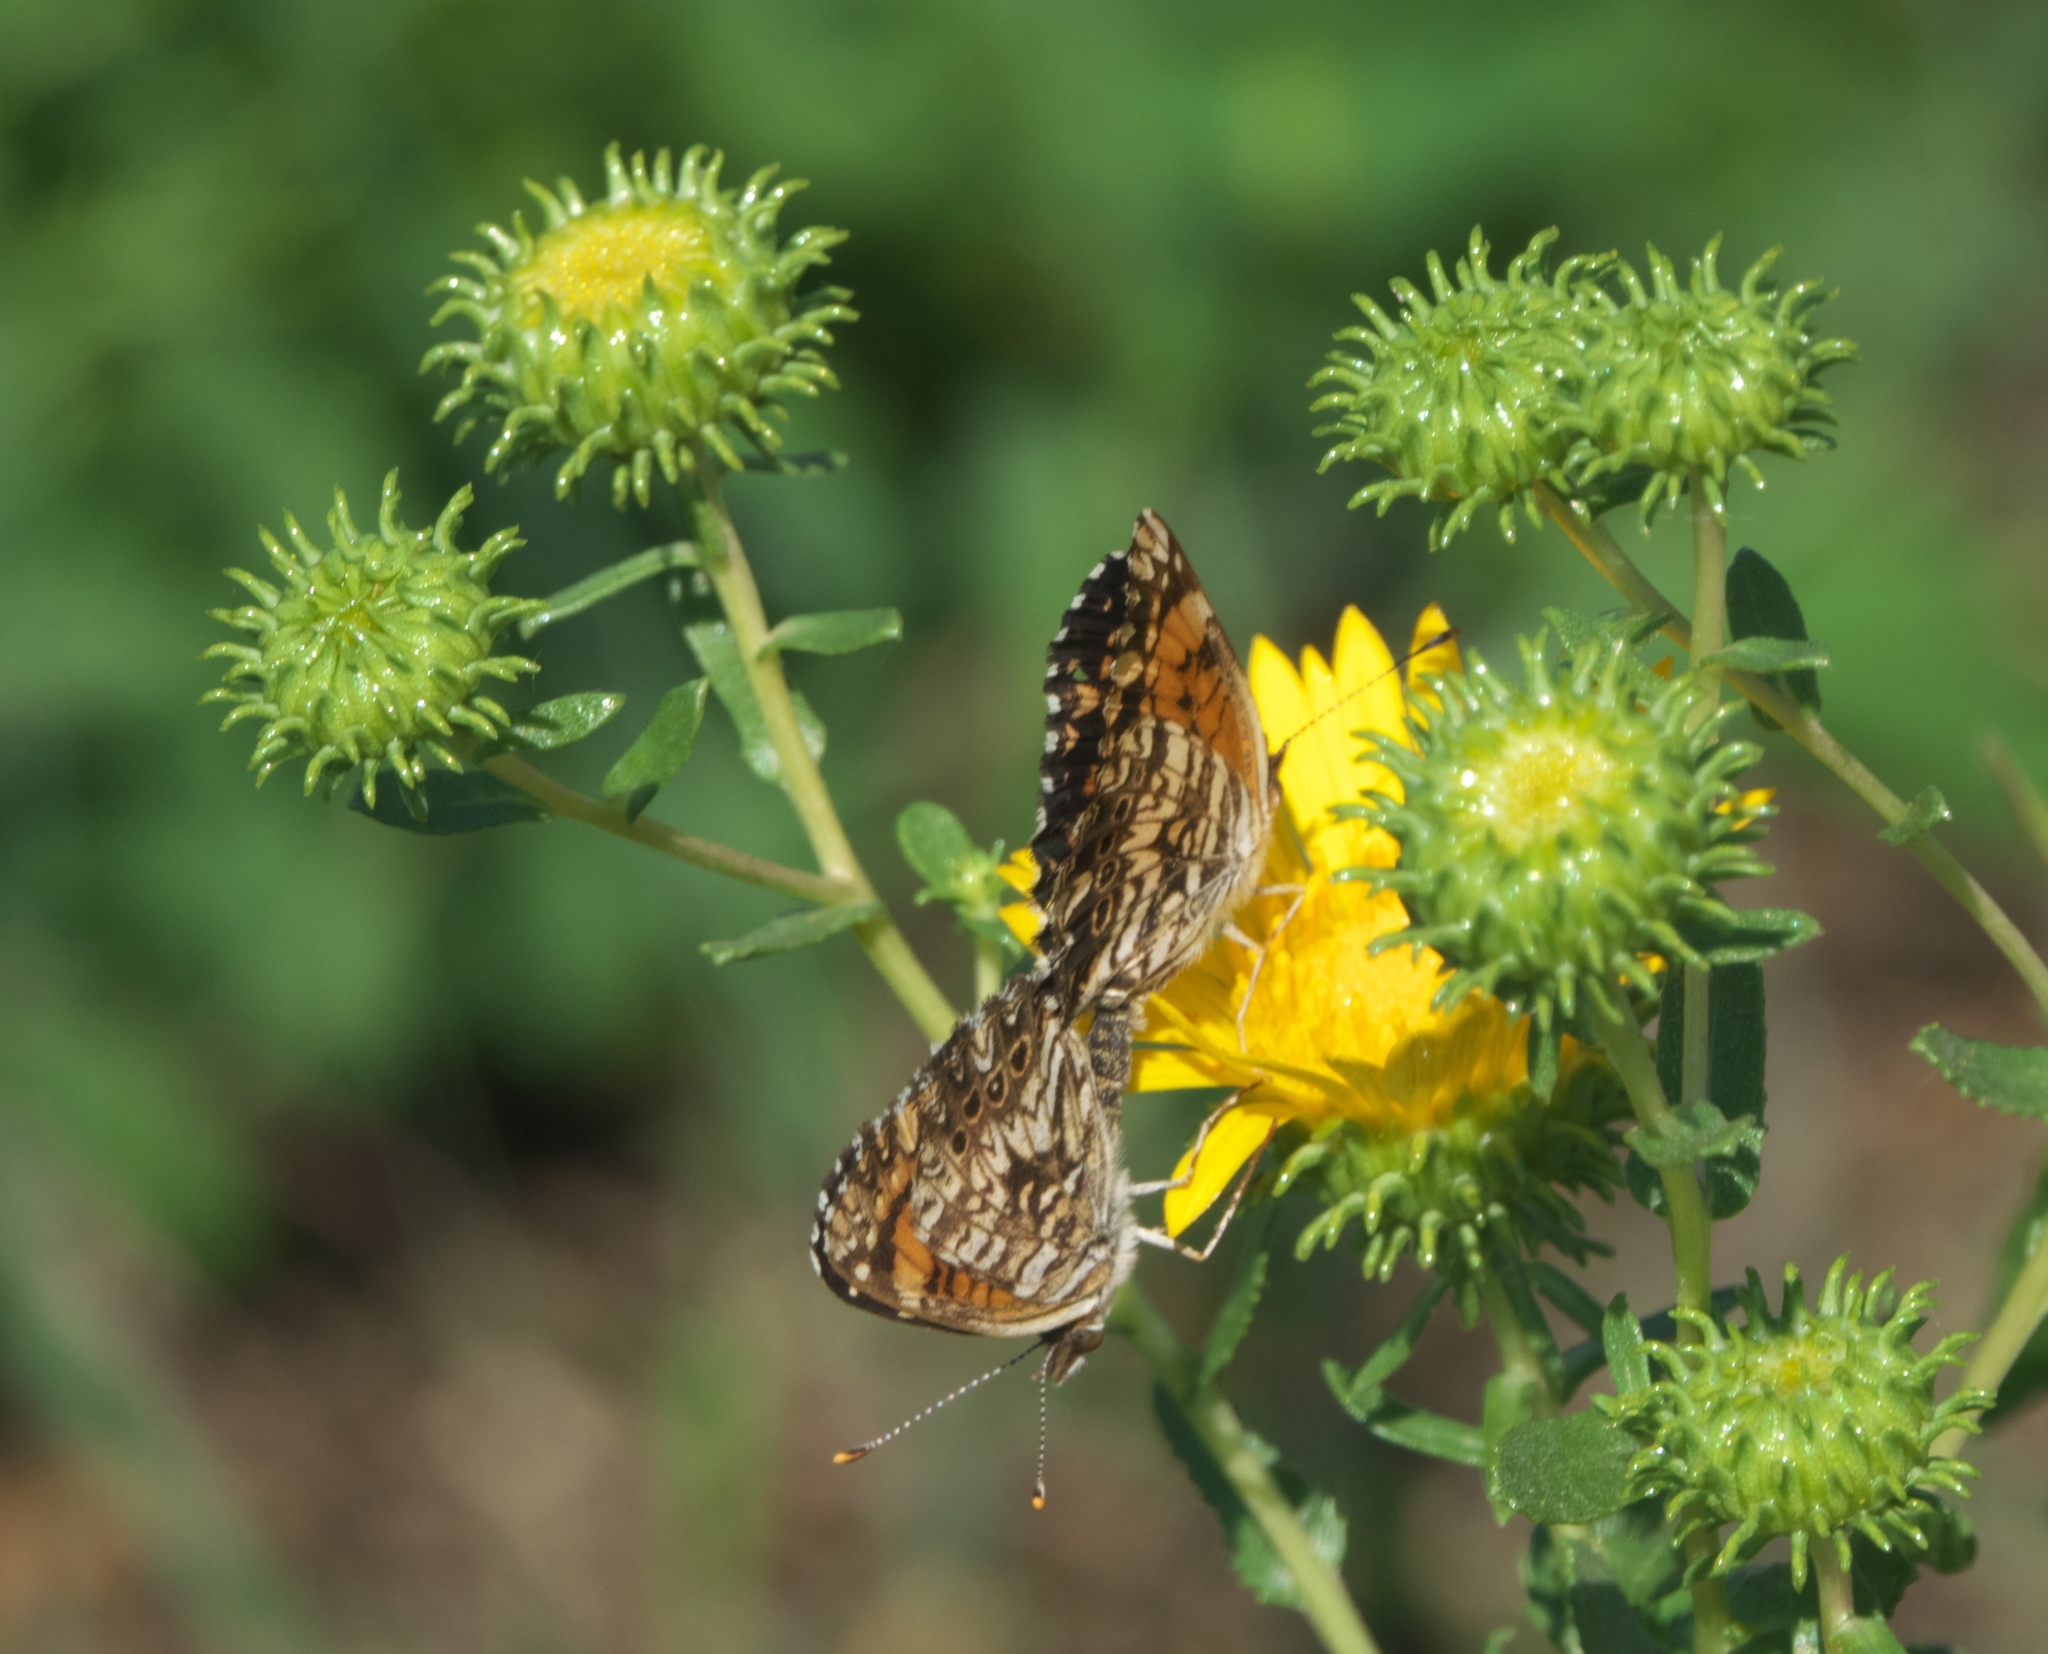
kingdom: Animalia
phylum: Arthropoda
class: Insecta
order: Lepidoptera
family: Nymphalidae
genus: Chlosyne
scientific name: Chlosyne gorgone
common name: Gorgone checkerspot
